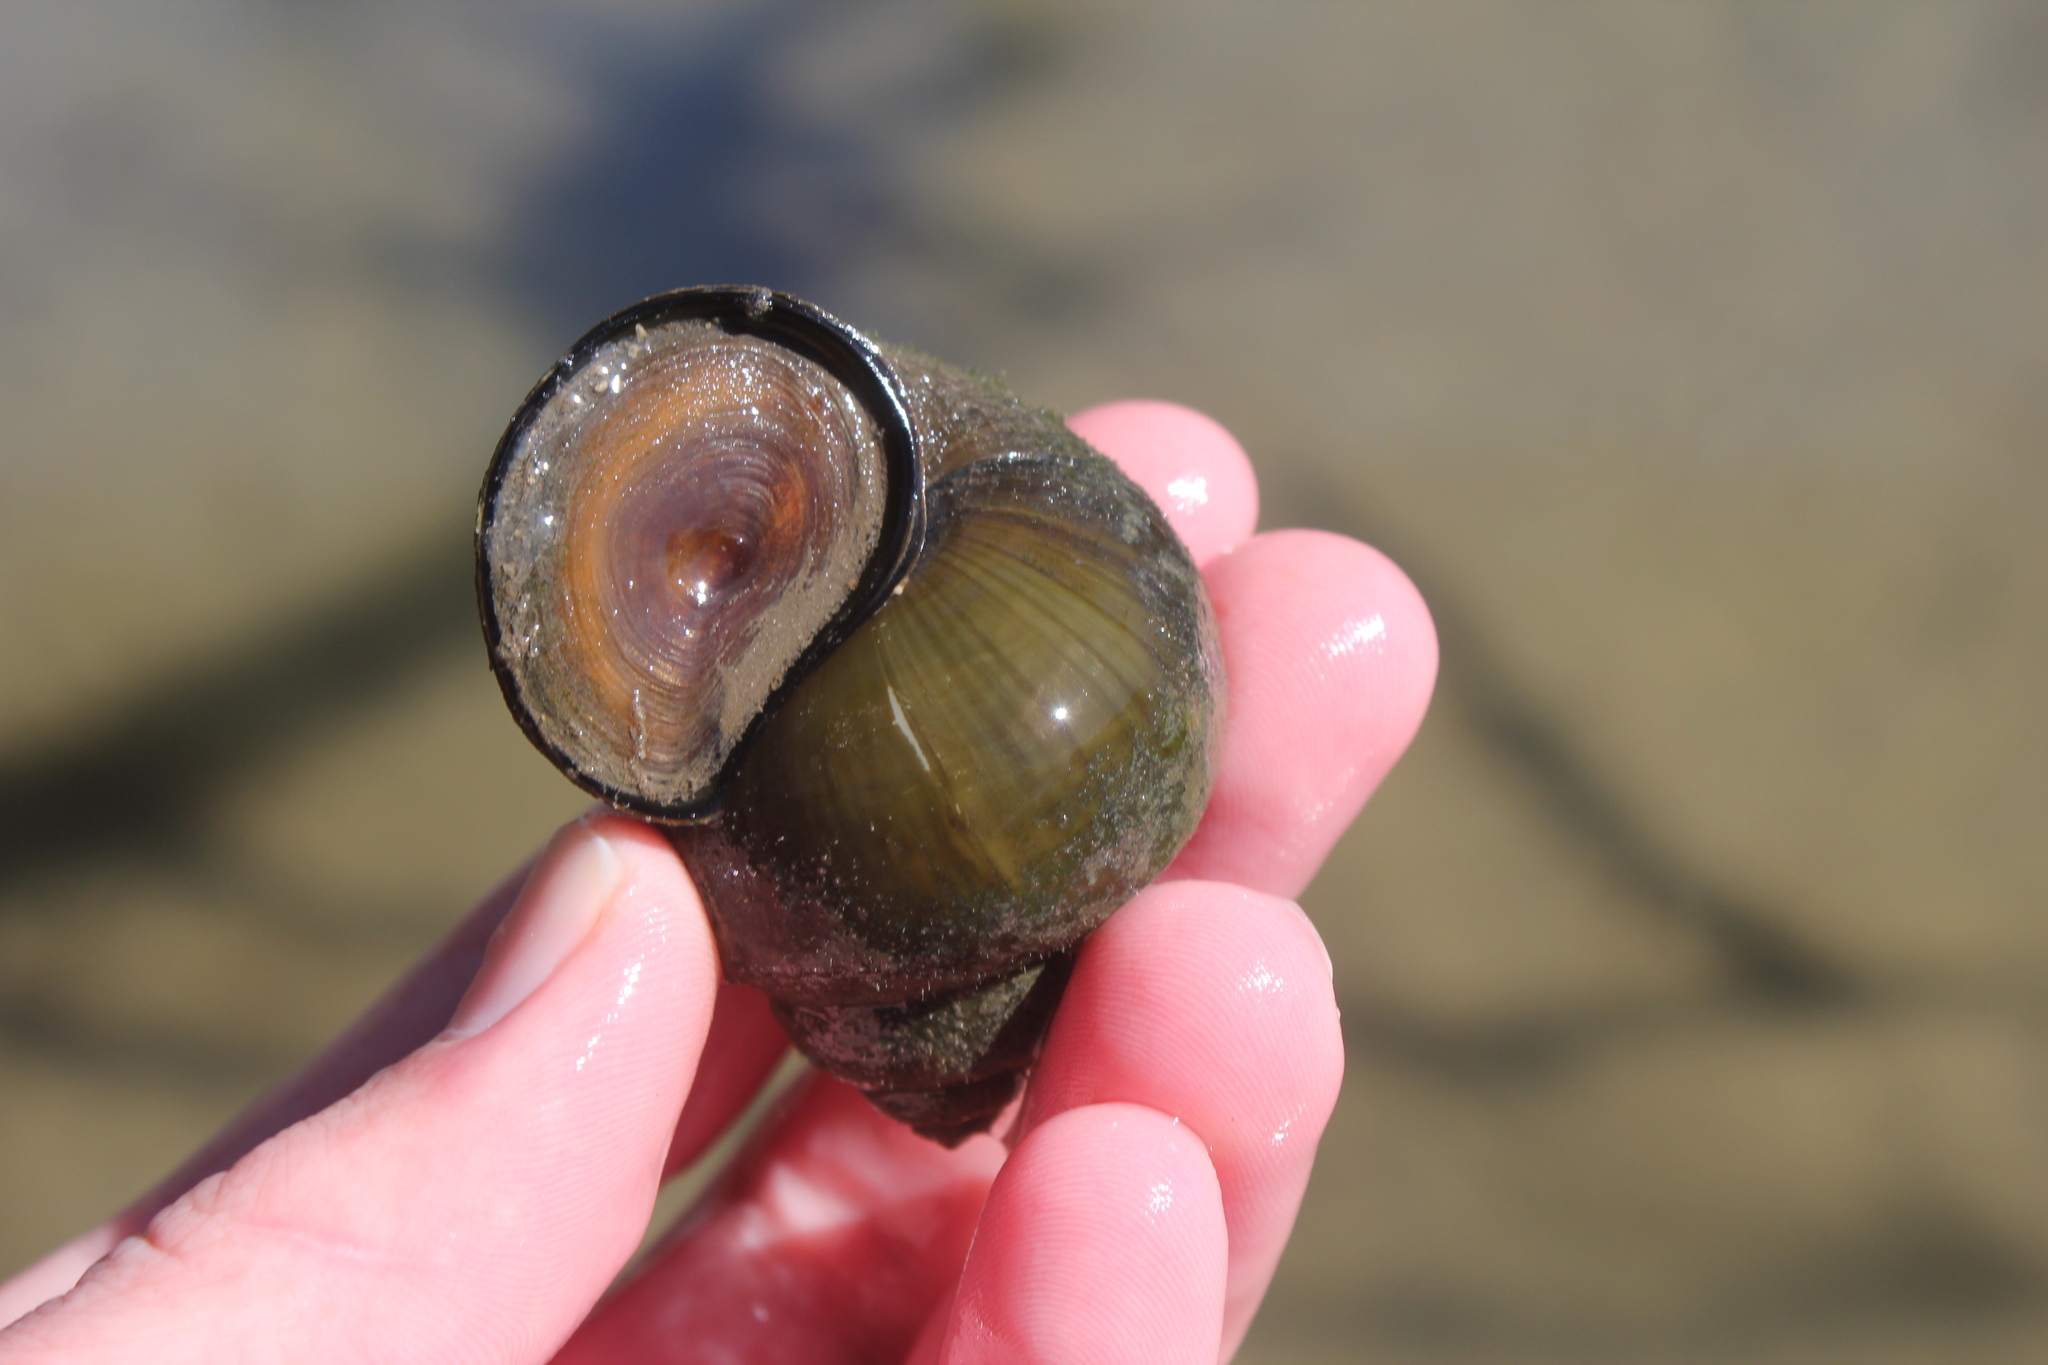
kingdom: Animalia
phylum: Mollusca
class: Gastropoda
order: Architaenioglossa
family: Viviparidae
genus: Cipangopaludina
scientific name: Cipangopaludina chinensis
